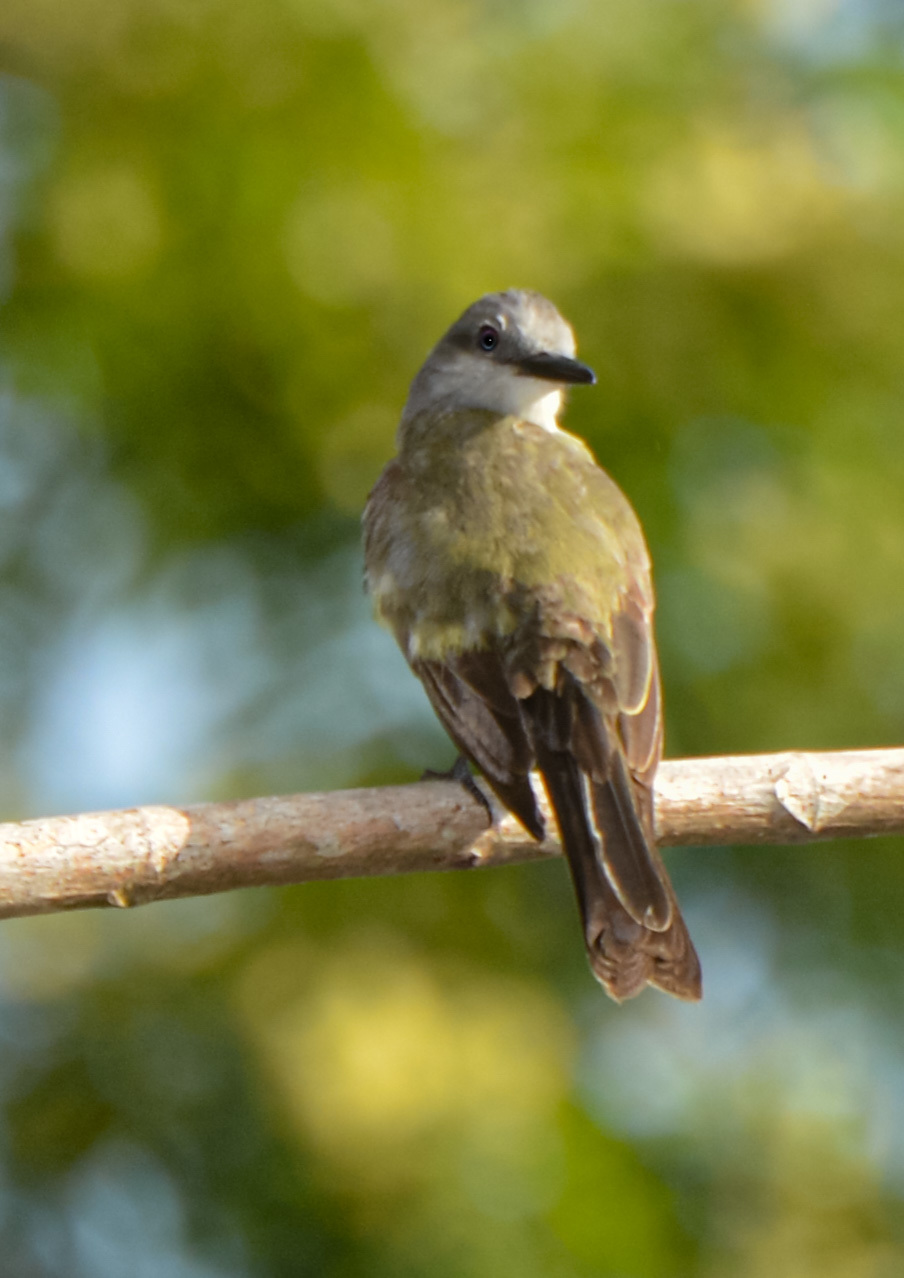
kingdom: Animalia
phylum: Chordata
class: Aves
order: Passeriformes
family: Tyrannidae
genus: Tyrannus
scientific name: Tyrannus dominicensis
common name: Gray kingbird
